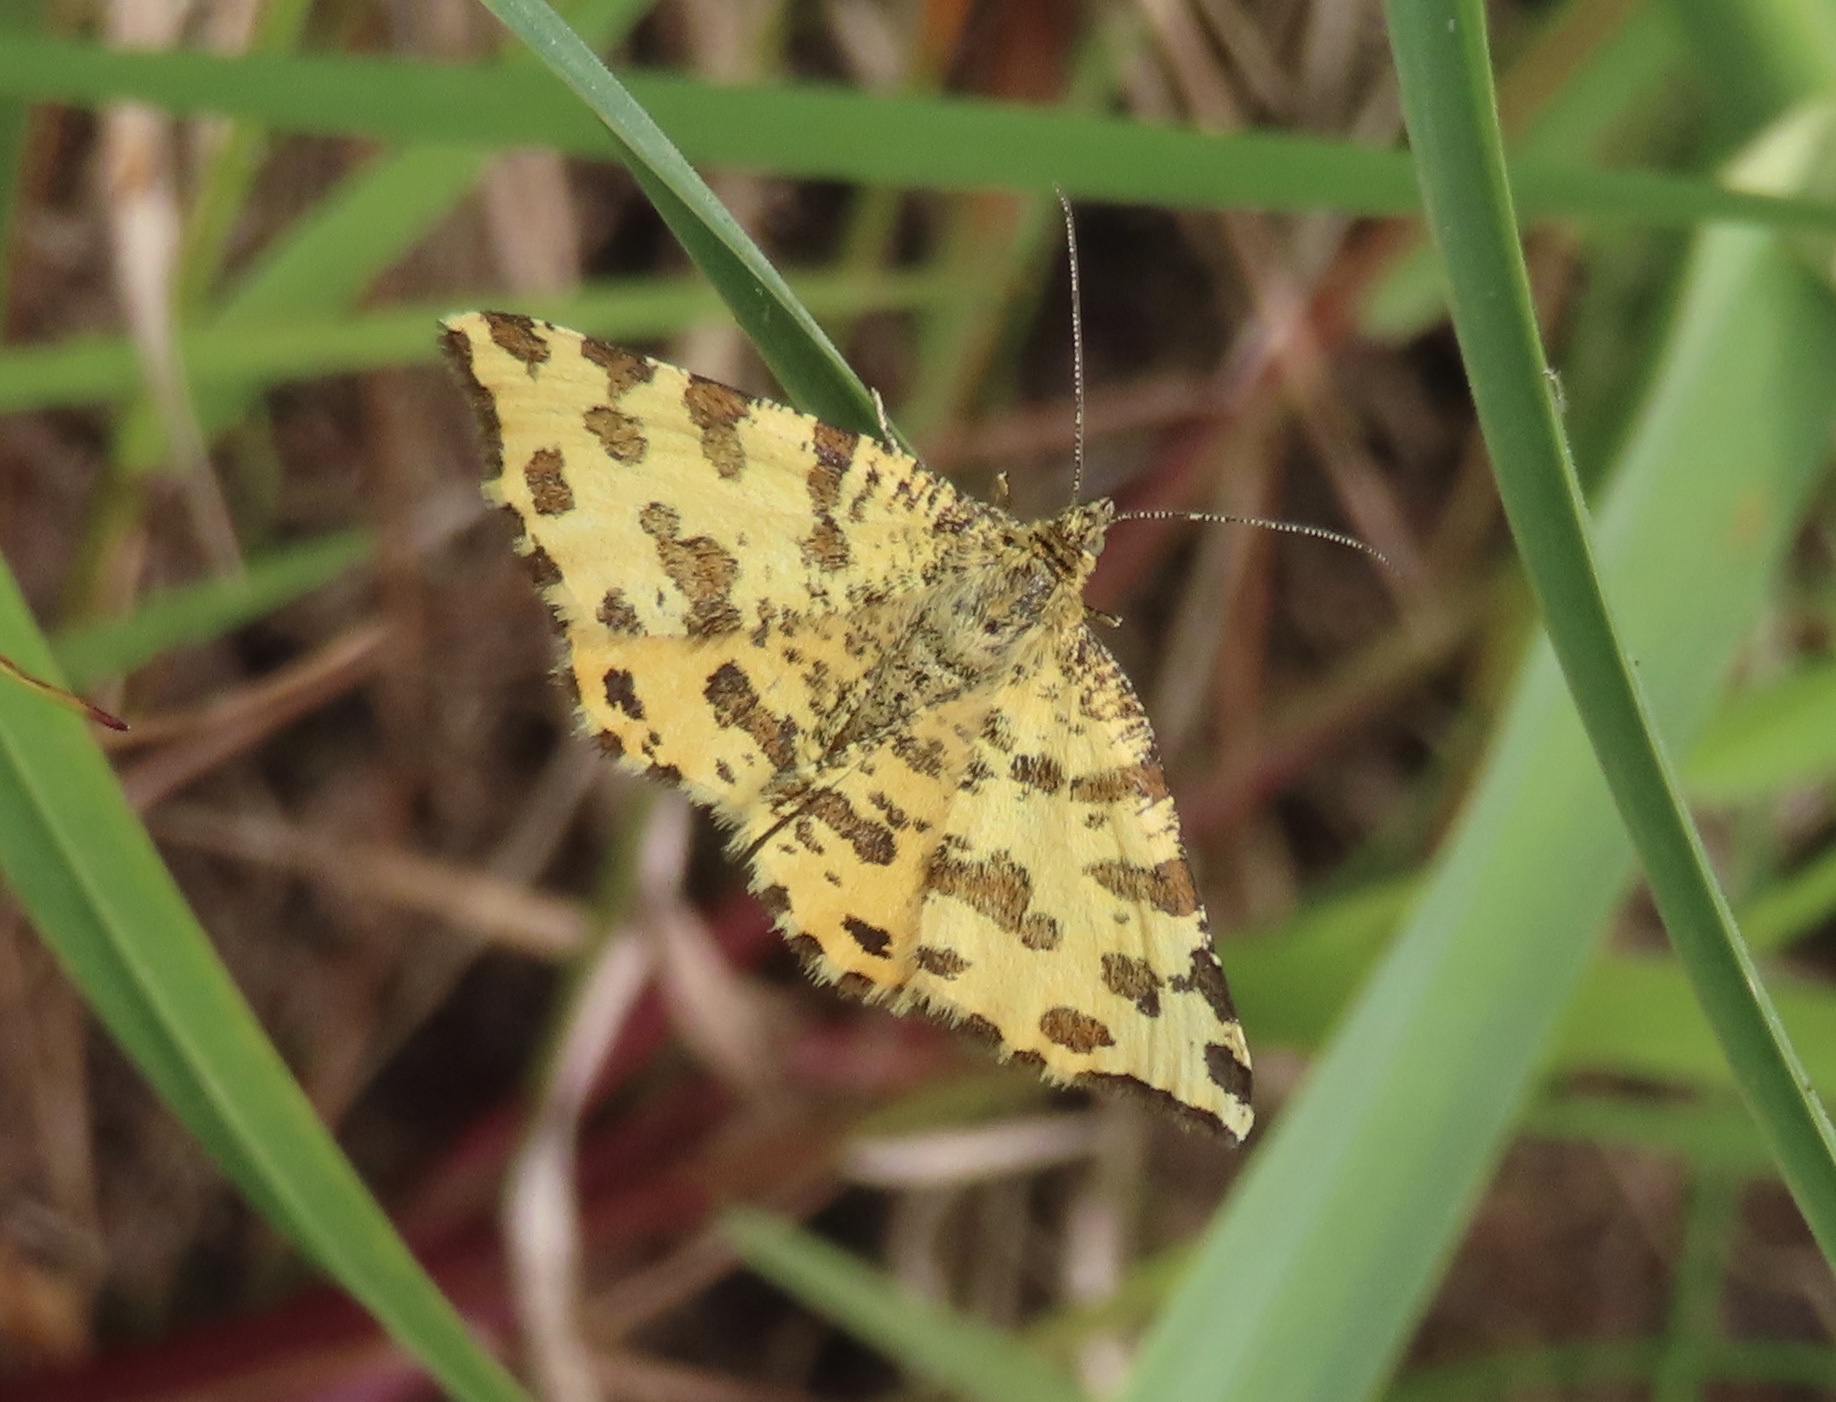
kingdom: Animalia
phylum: Arthropoda
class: Insecta
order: Lepidoptera
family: Geometridae
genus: Pseudopanthera
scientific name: Pseudopanthera macularia
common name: Speckled yellow
